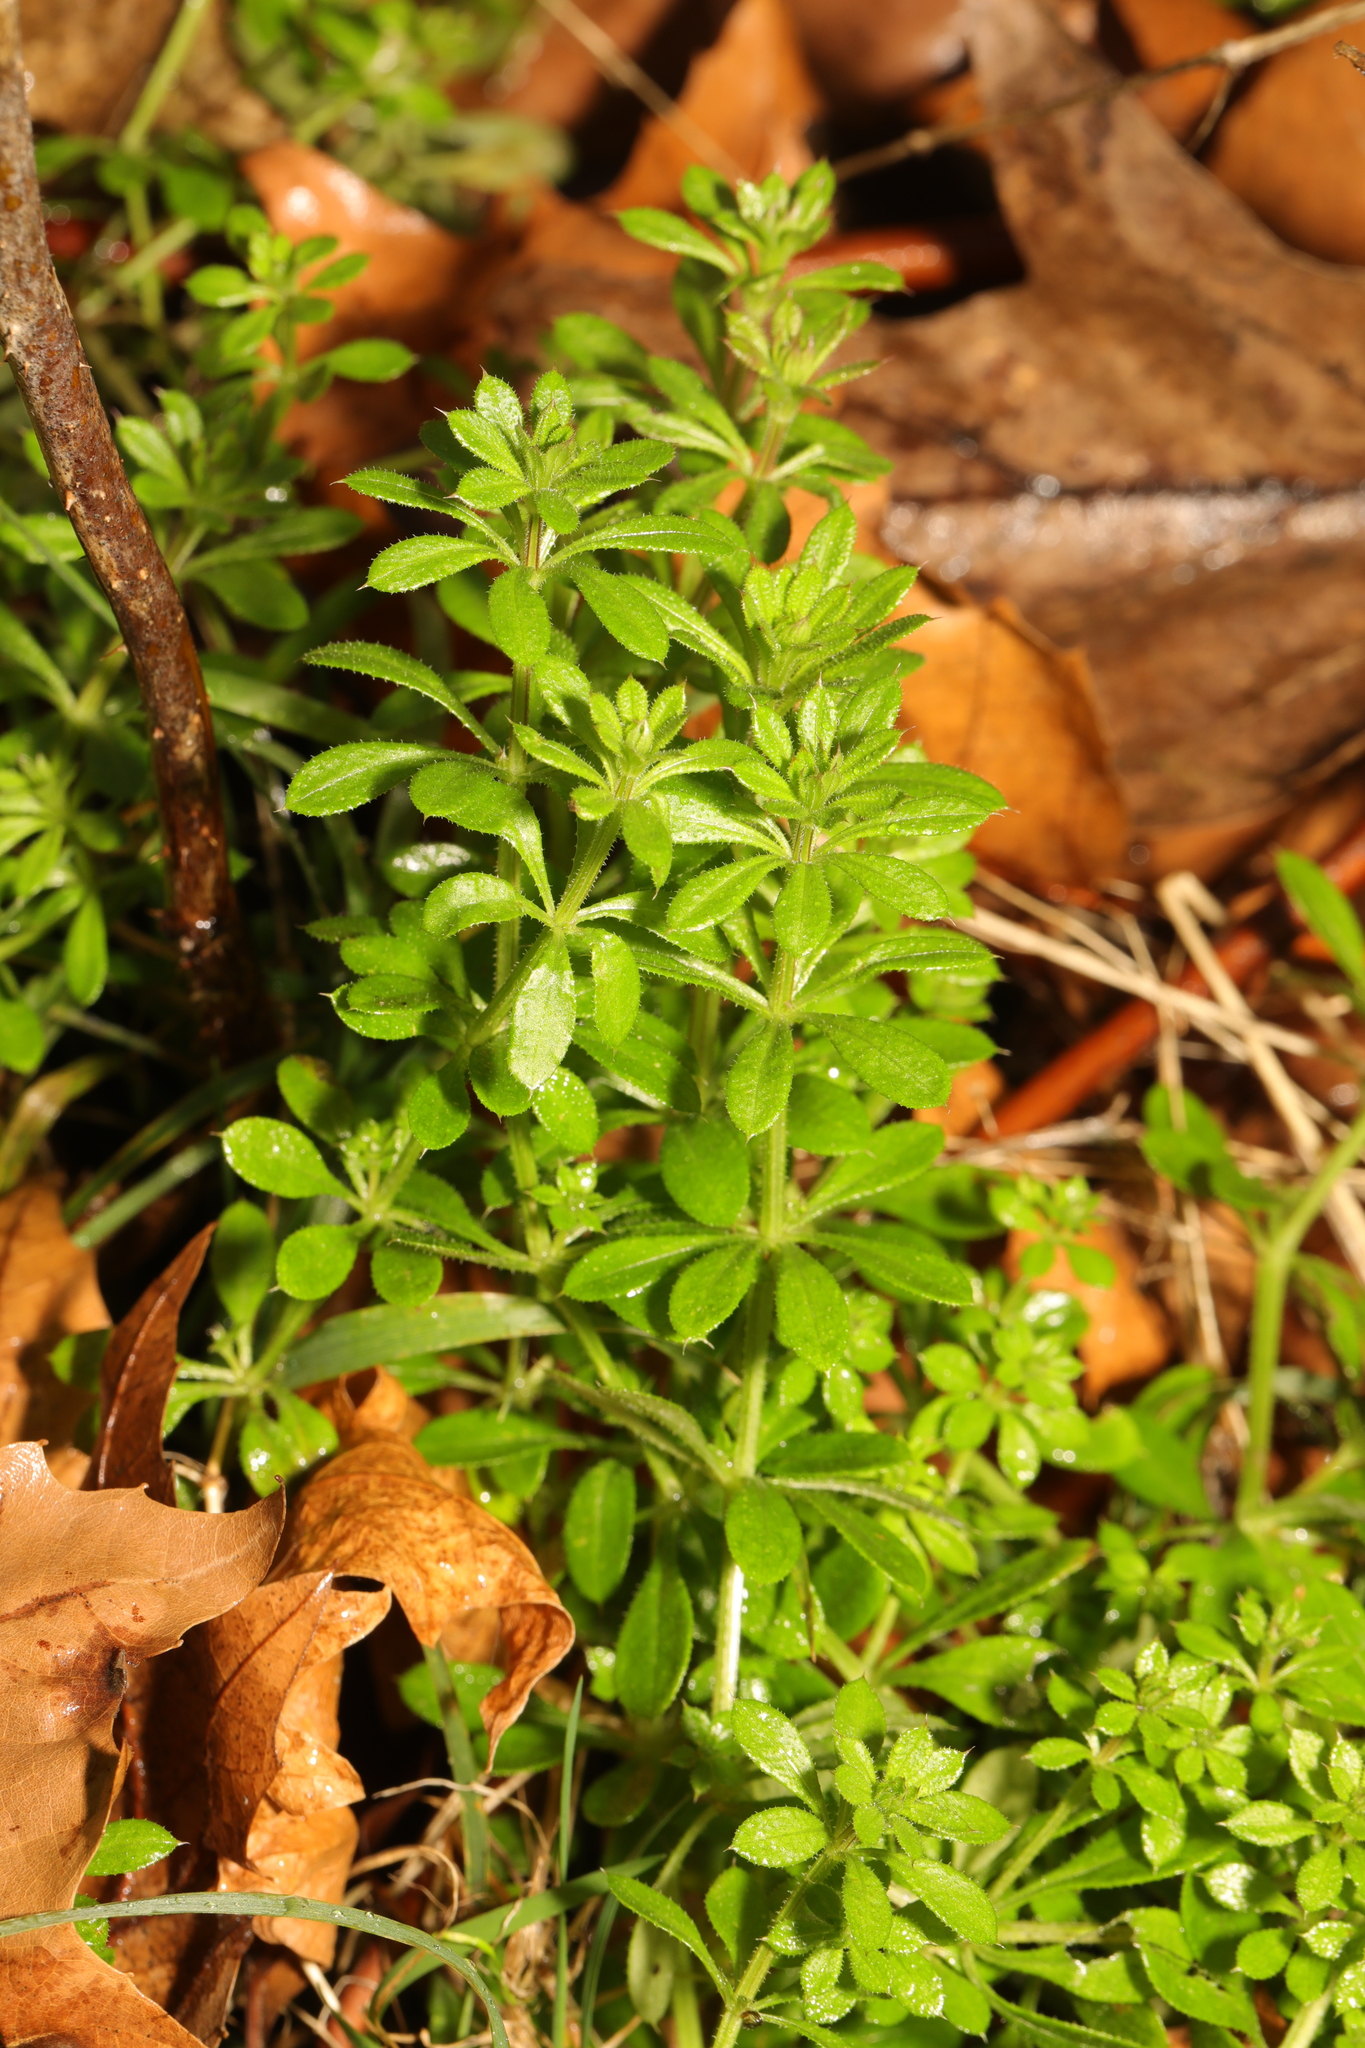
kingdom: Plantae
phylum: Tracheophyta
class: Magnoliopsida
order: Gentianales
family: Rubiaceae
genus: Galium
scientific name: Galium aparine
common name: Cleavers
